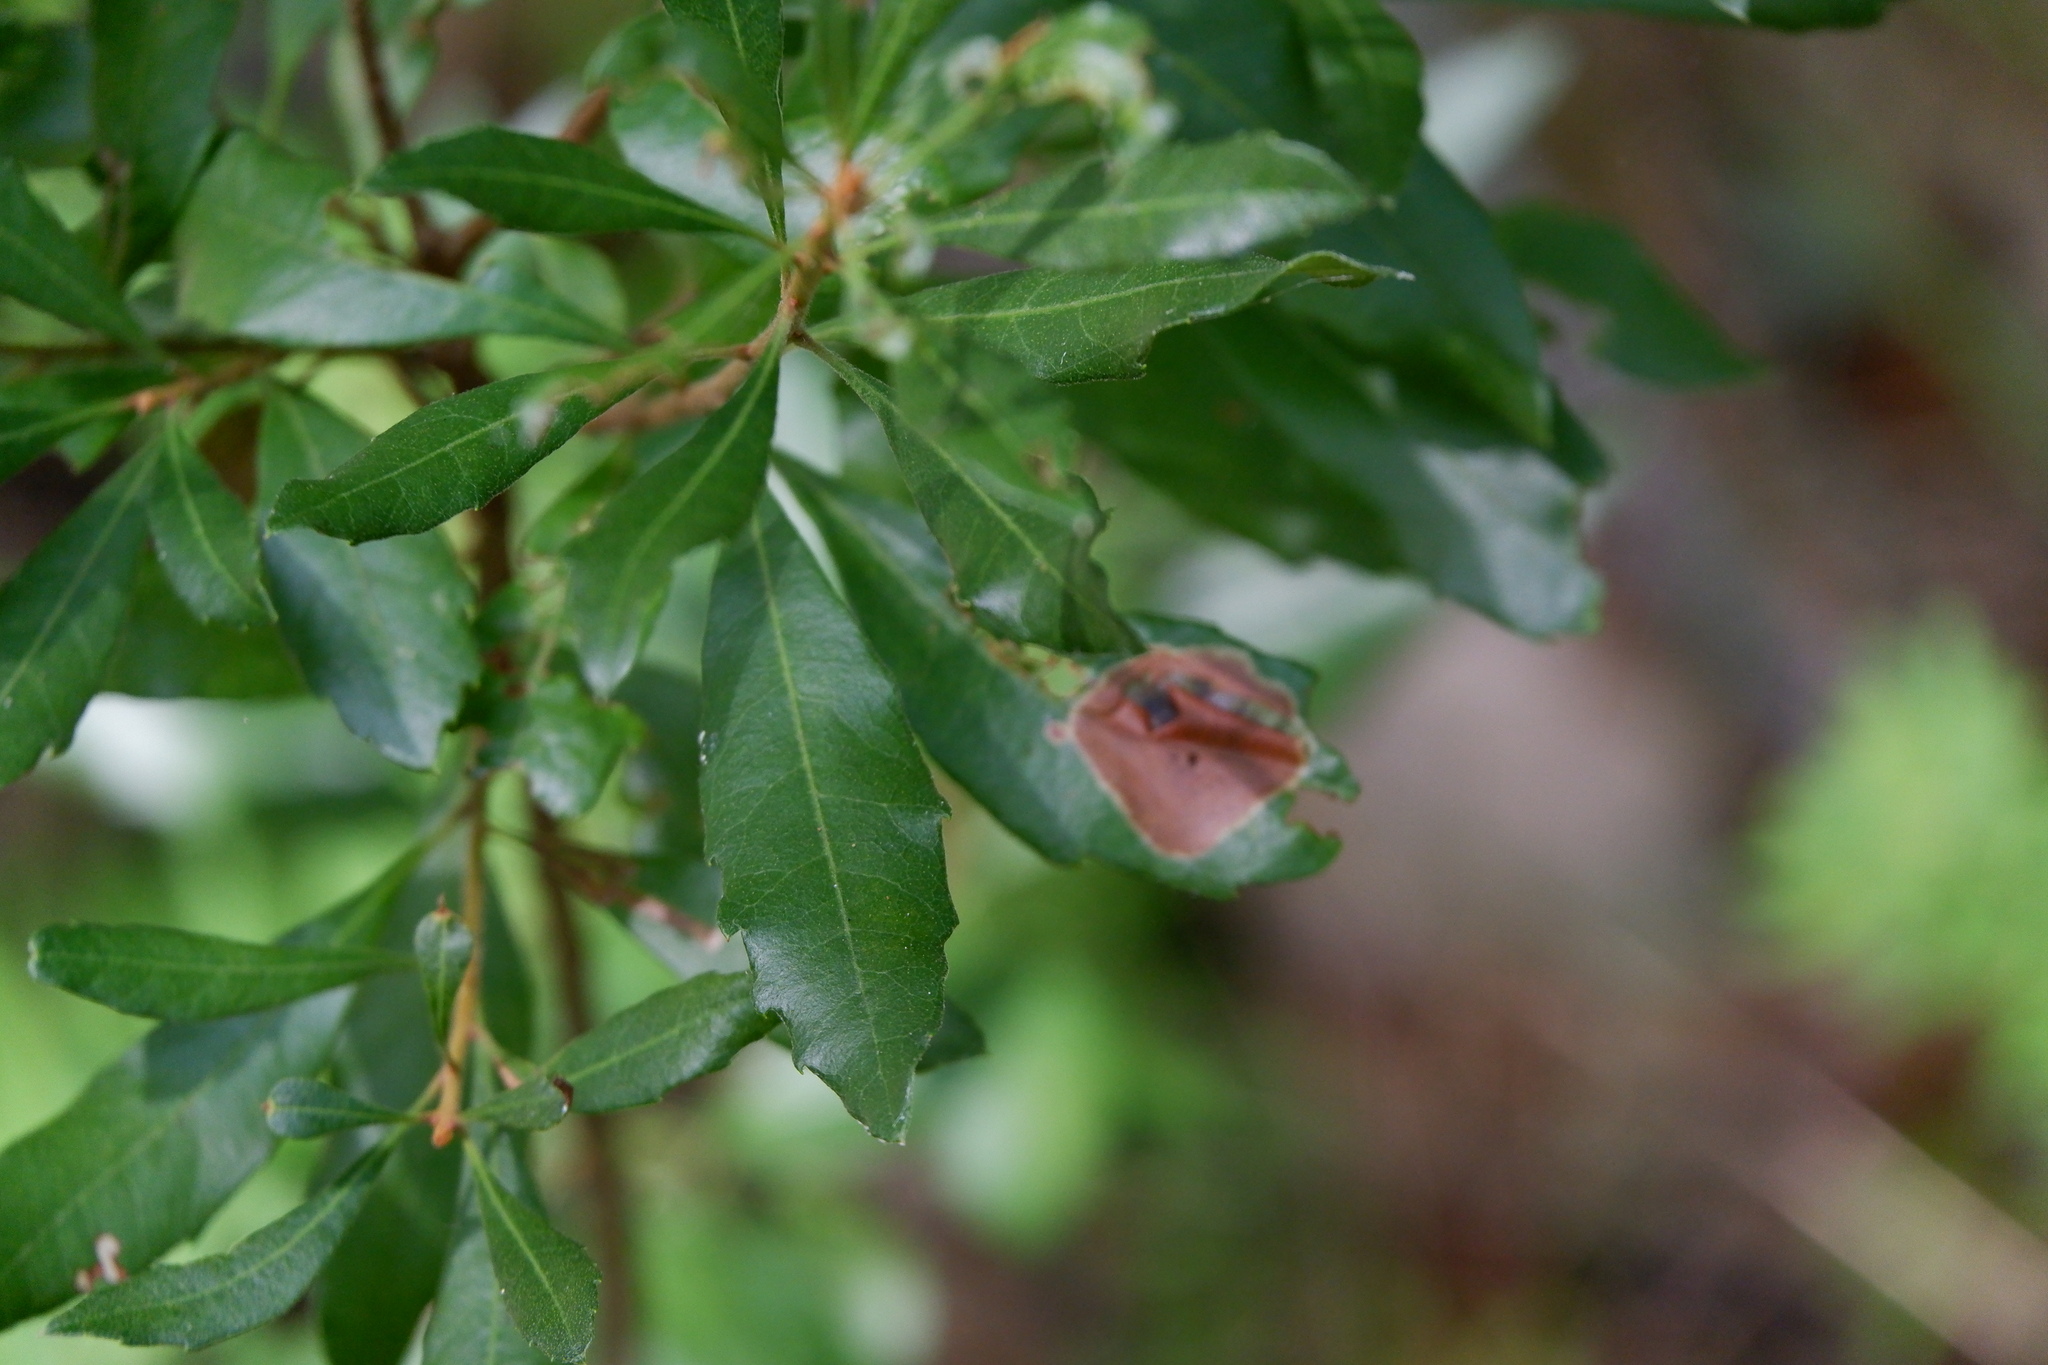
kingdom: Animalia
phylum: Arthropoda
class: Insecta
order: Lepidoptera
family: Gracillariidae
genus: Cameraria
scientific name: Cameraria picturatella
